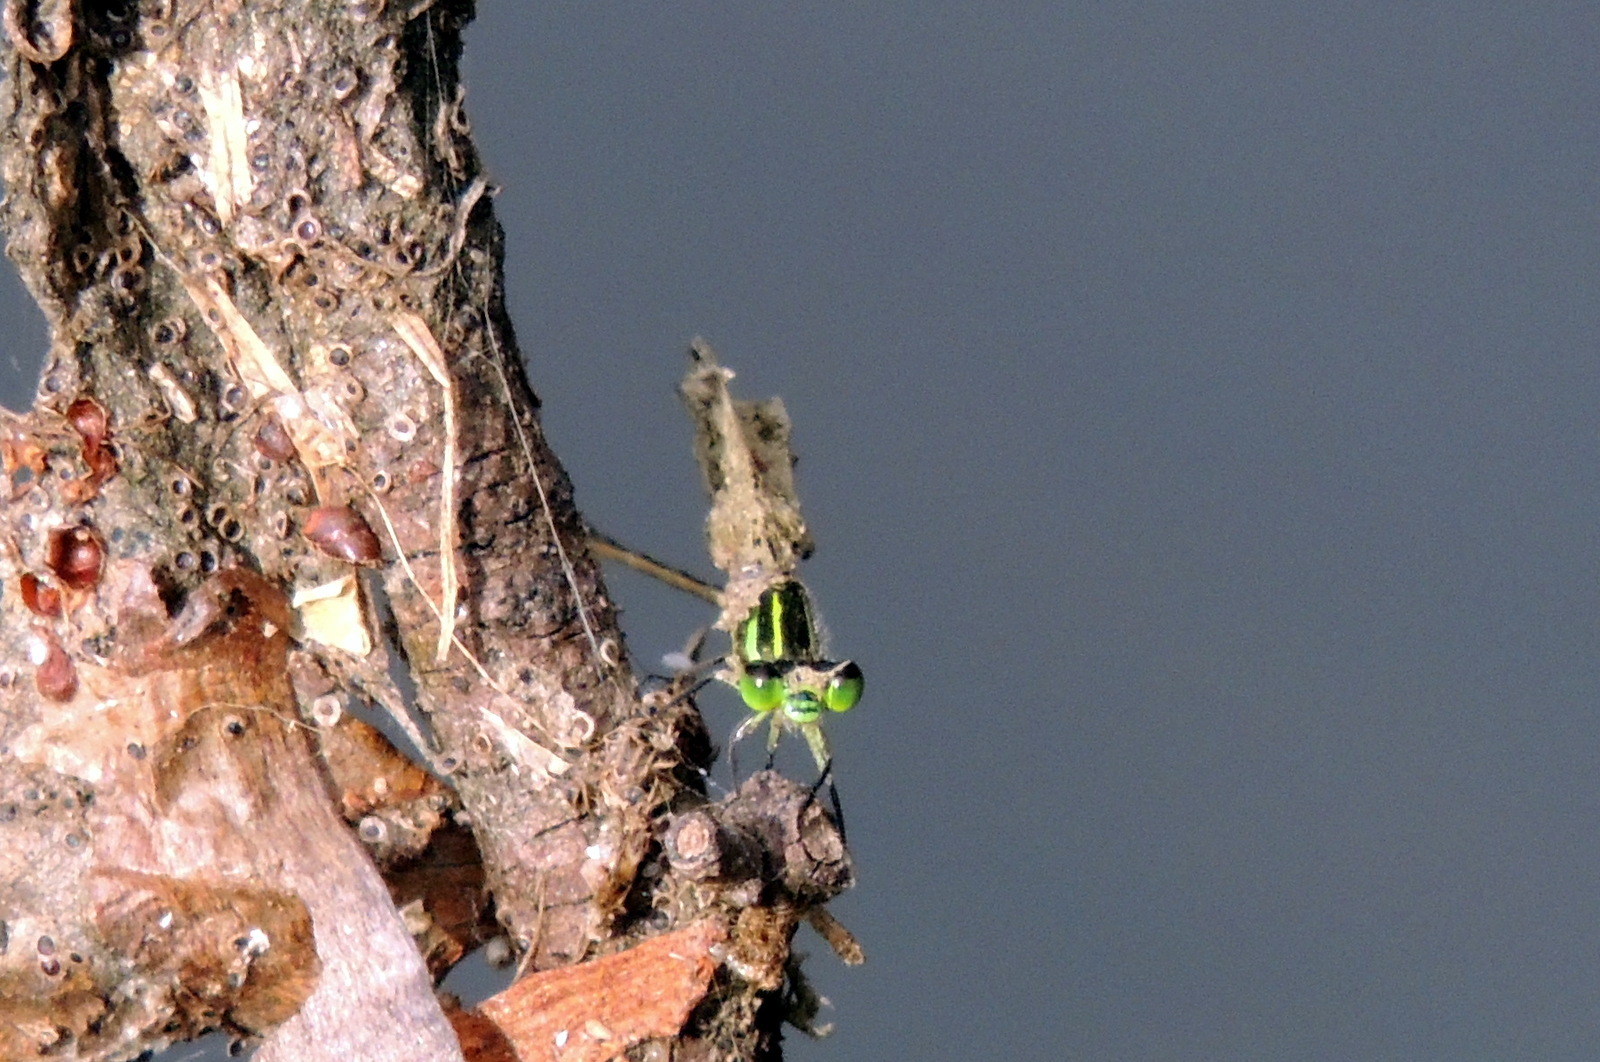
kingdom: Animalia
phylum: Arthropoda
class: Insecta
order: Odonata
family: Coenagrionidae
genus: Ischnura
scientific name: Ischnura ramburii
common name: Rambur's forktail
